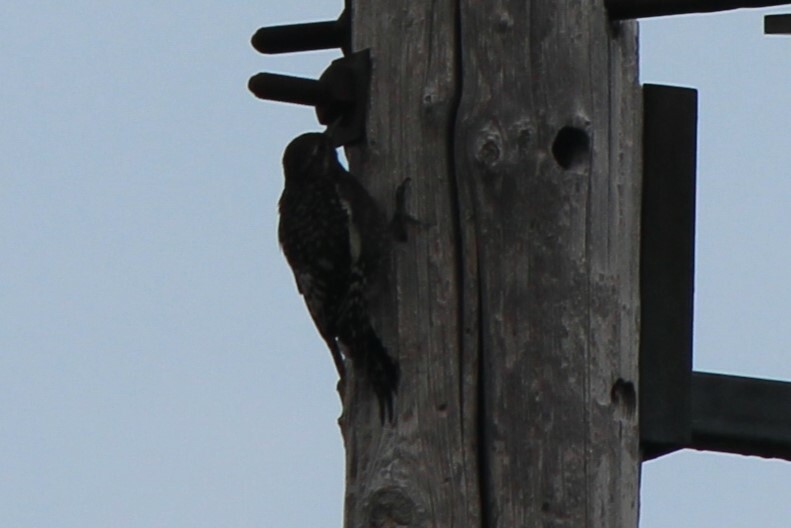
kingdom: Animalia
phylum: Chordata
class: Aves
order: Piciformes
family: Picidae
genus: Sphyrapicus
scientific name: Sphyrapicus varius
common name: Yellow-bellied sapsucker
